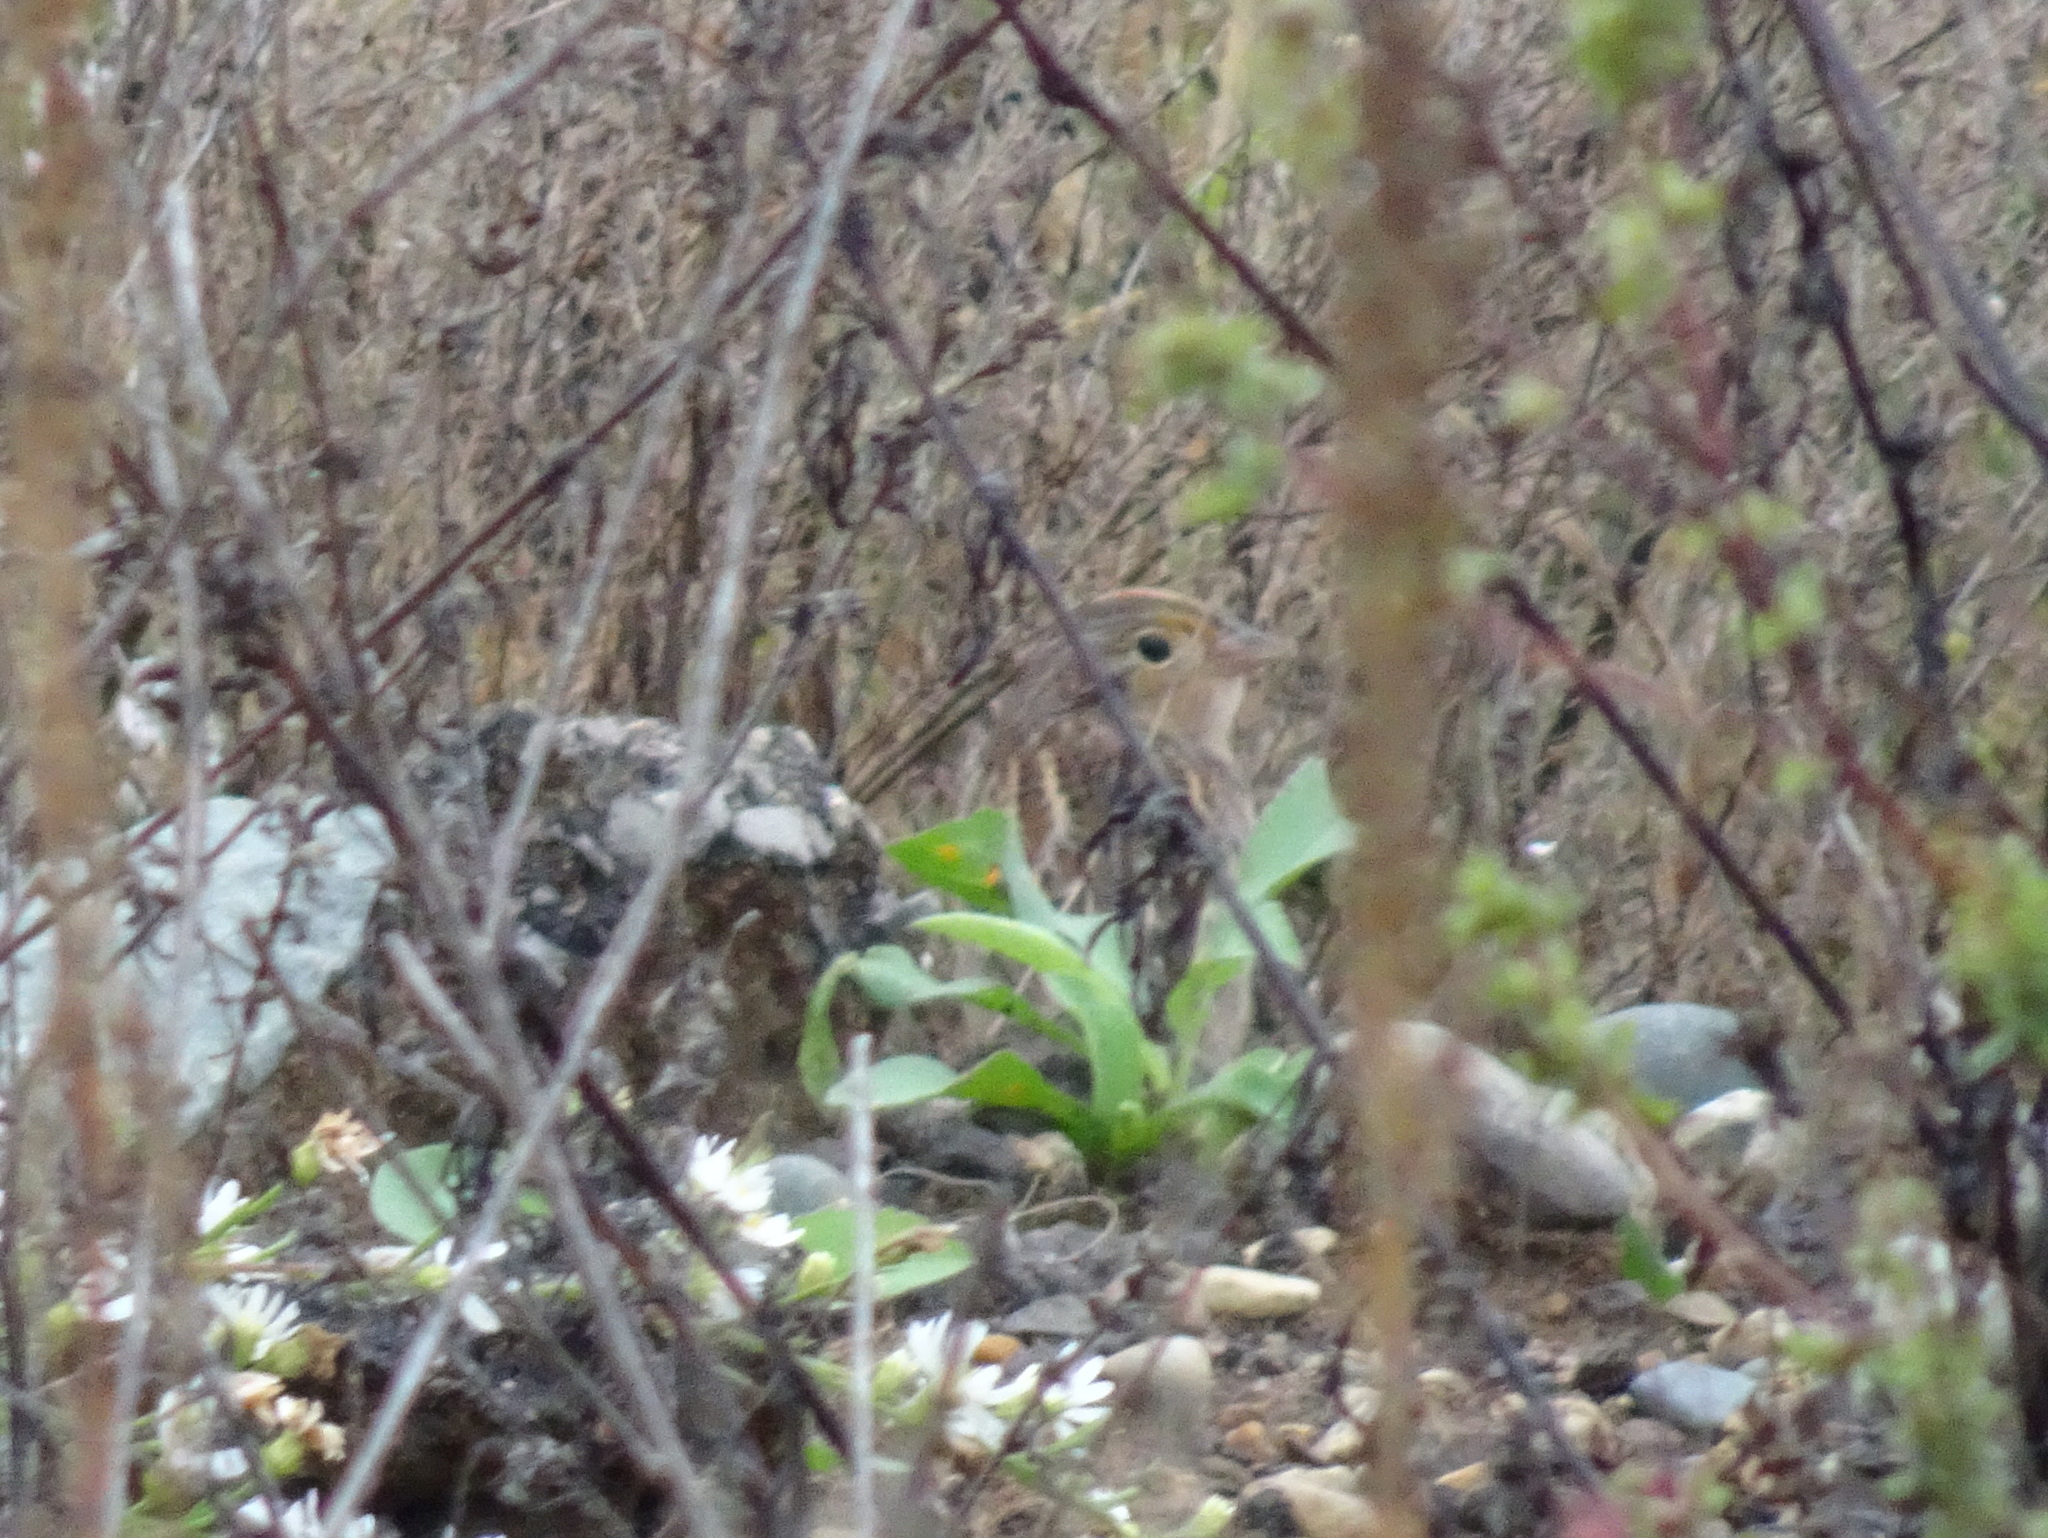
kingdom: Animalia
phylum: Chordata
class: Aves
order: Passeriformes
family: Passerellidae
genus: Ammodramus
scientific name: Ammodramus savannarum
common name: Grasshopper sparrow
